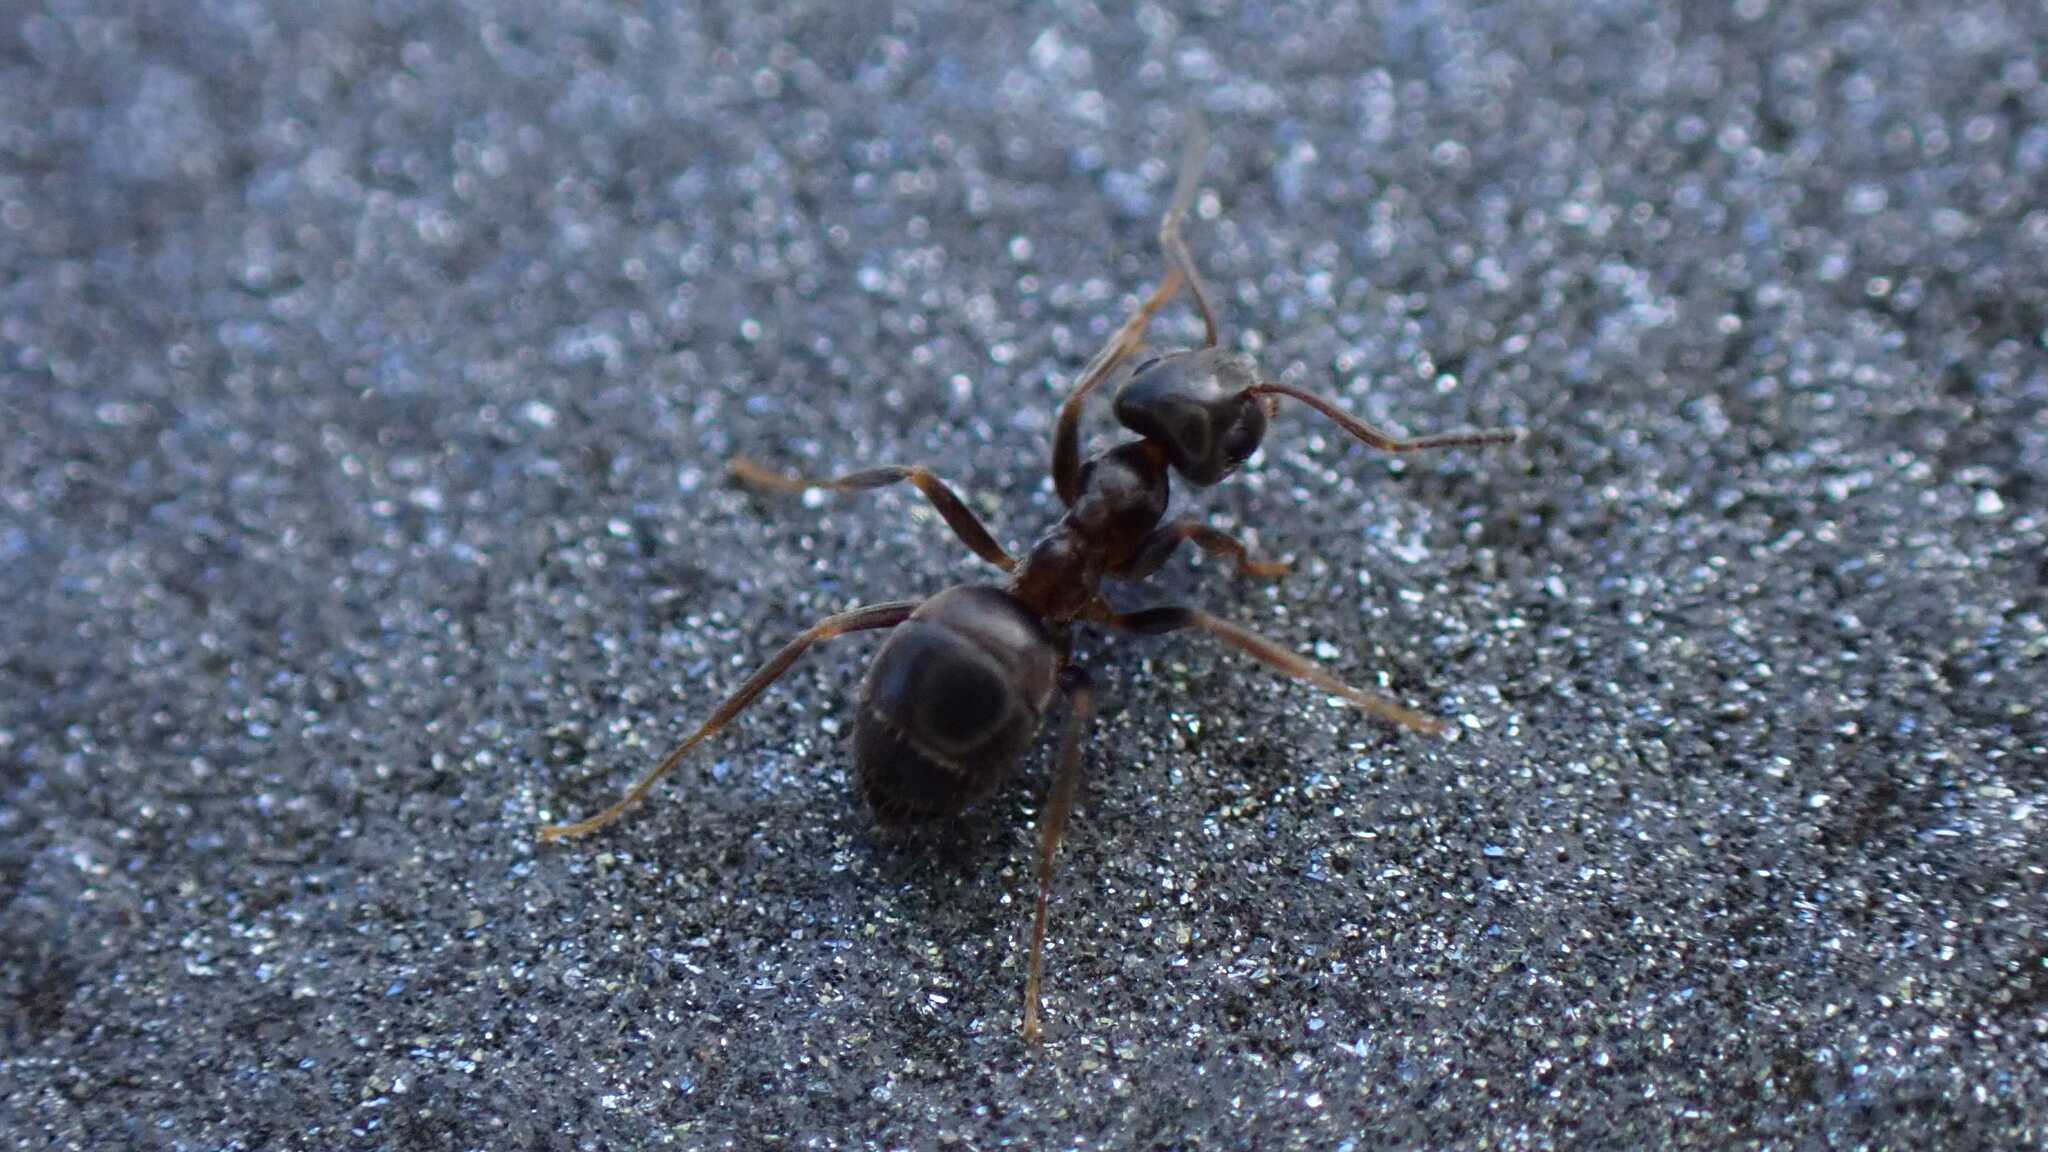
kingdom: Animalia
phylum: Arthropoda
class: Insecta
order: Hymenoptera
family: Formicidae
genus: Lasius
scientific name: Lasius
